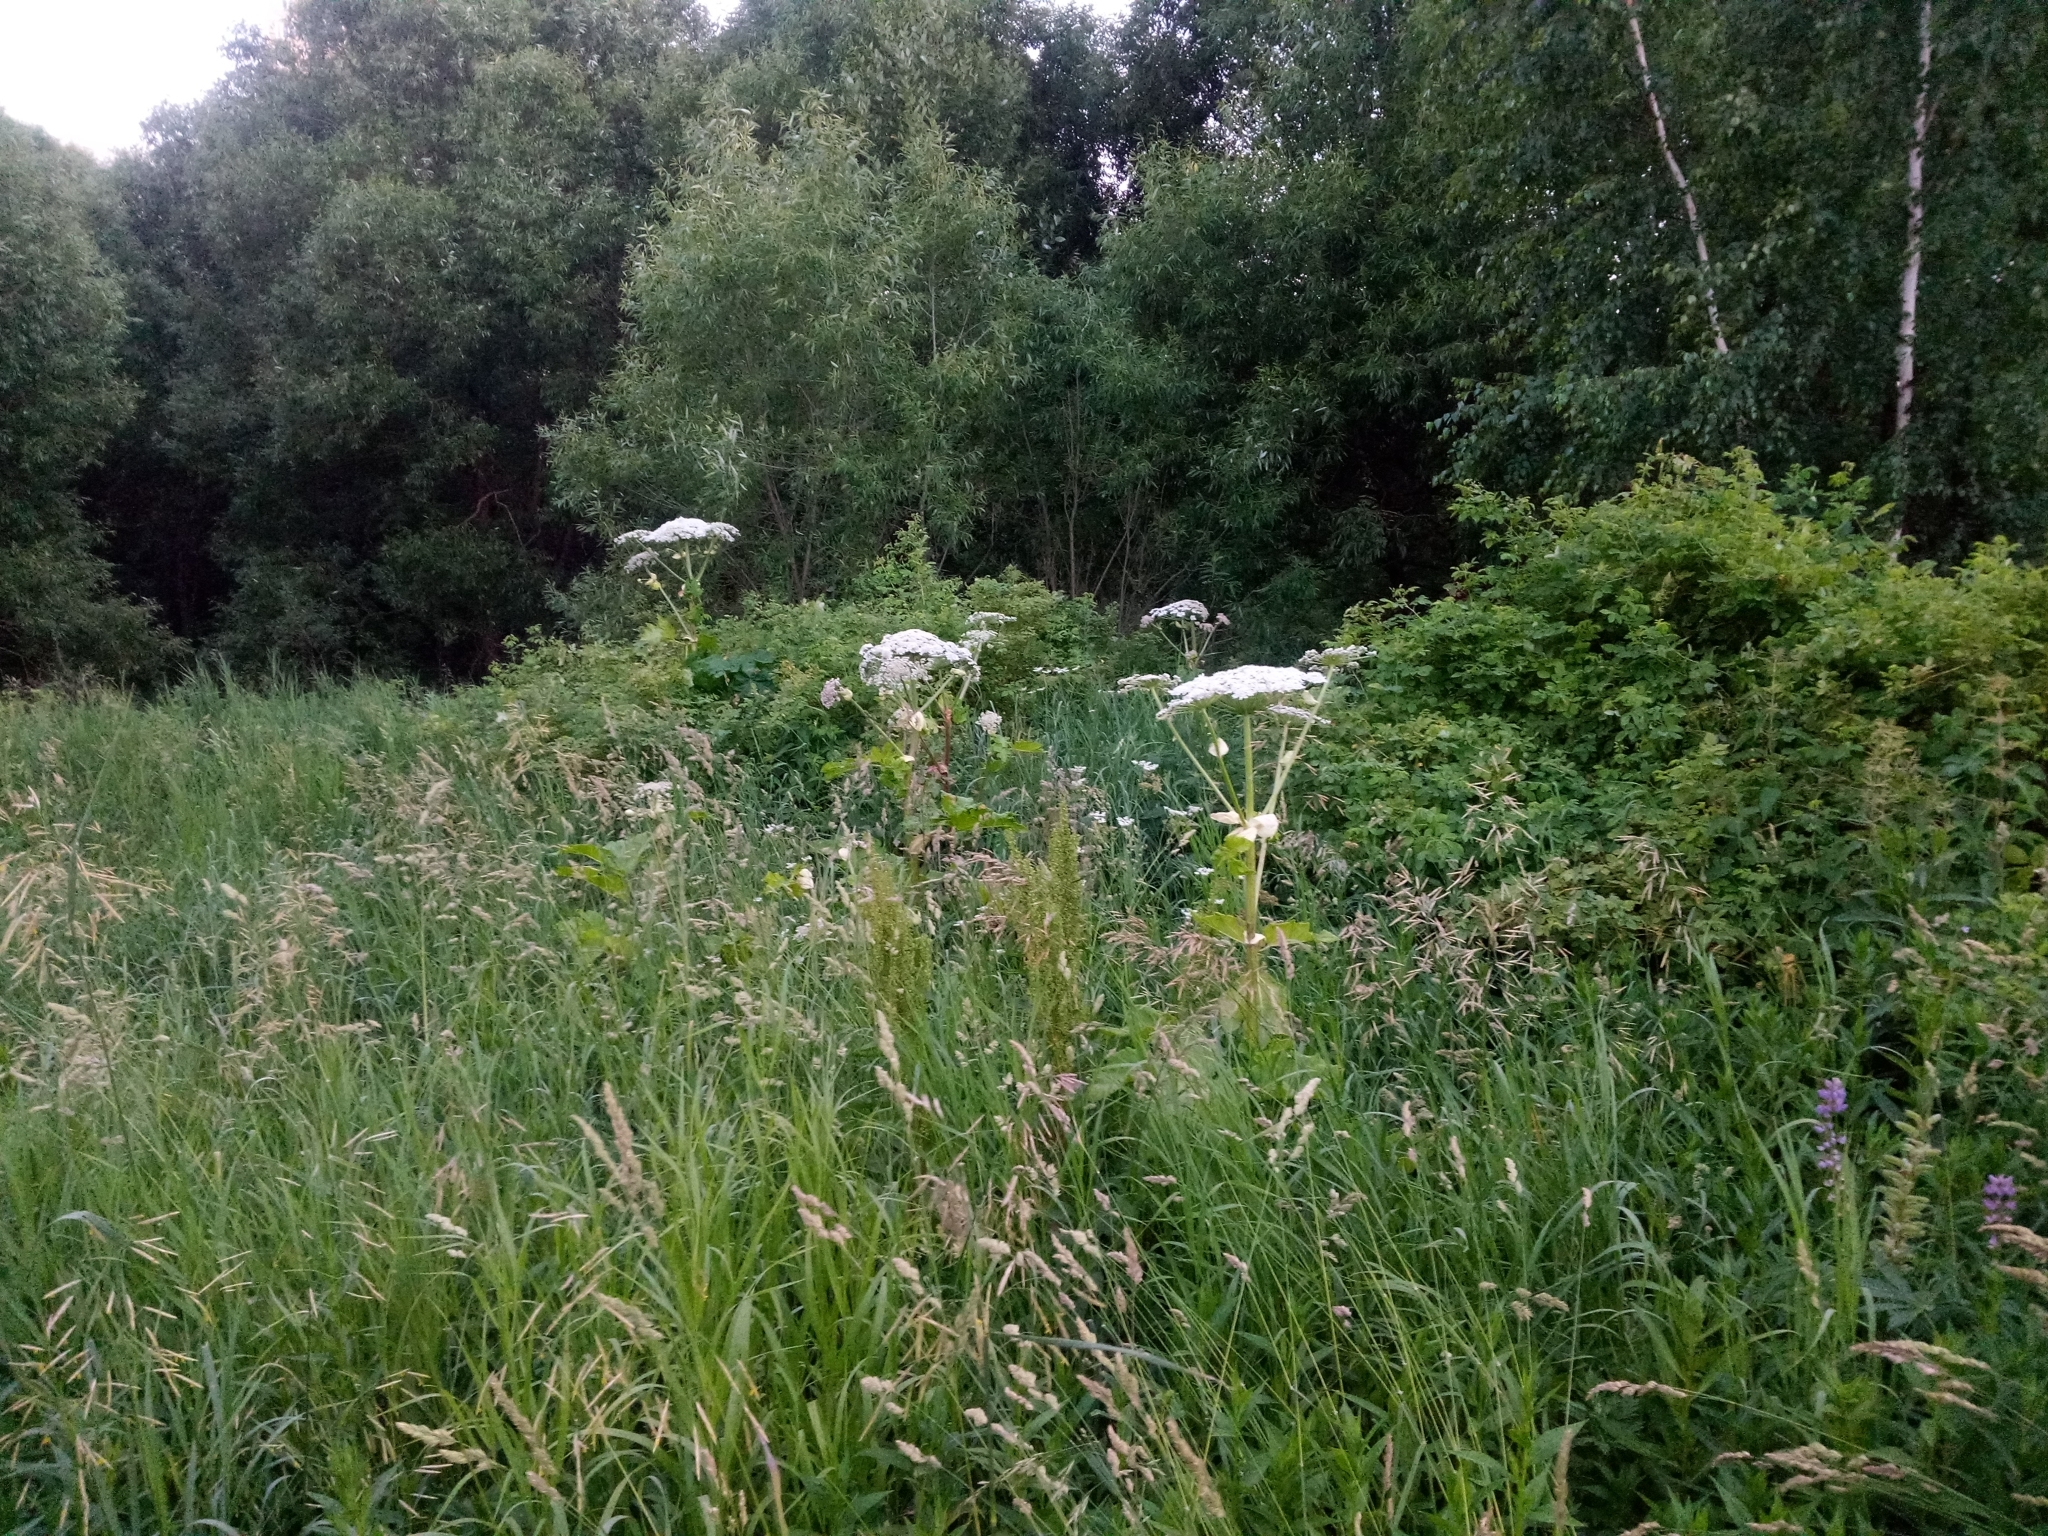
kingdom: Plantae
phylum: Tracheophyta
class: Magnoliopsida
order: Apiales
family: Apiaceae
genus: Heracleum
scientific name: Heracleum sosnowskyi
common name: Sosnowsky's hogweed
